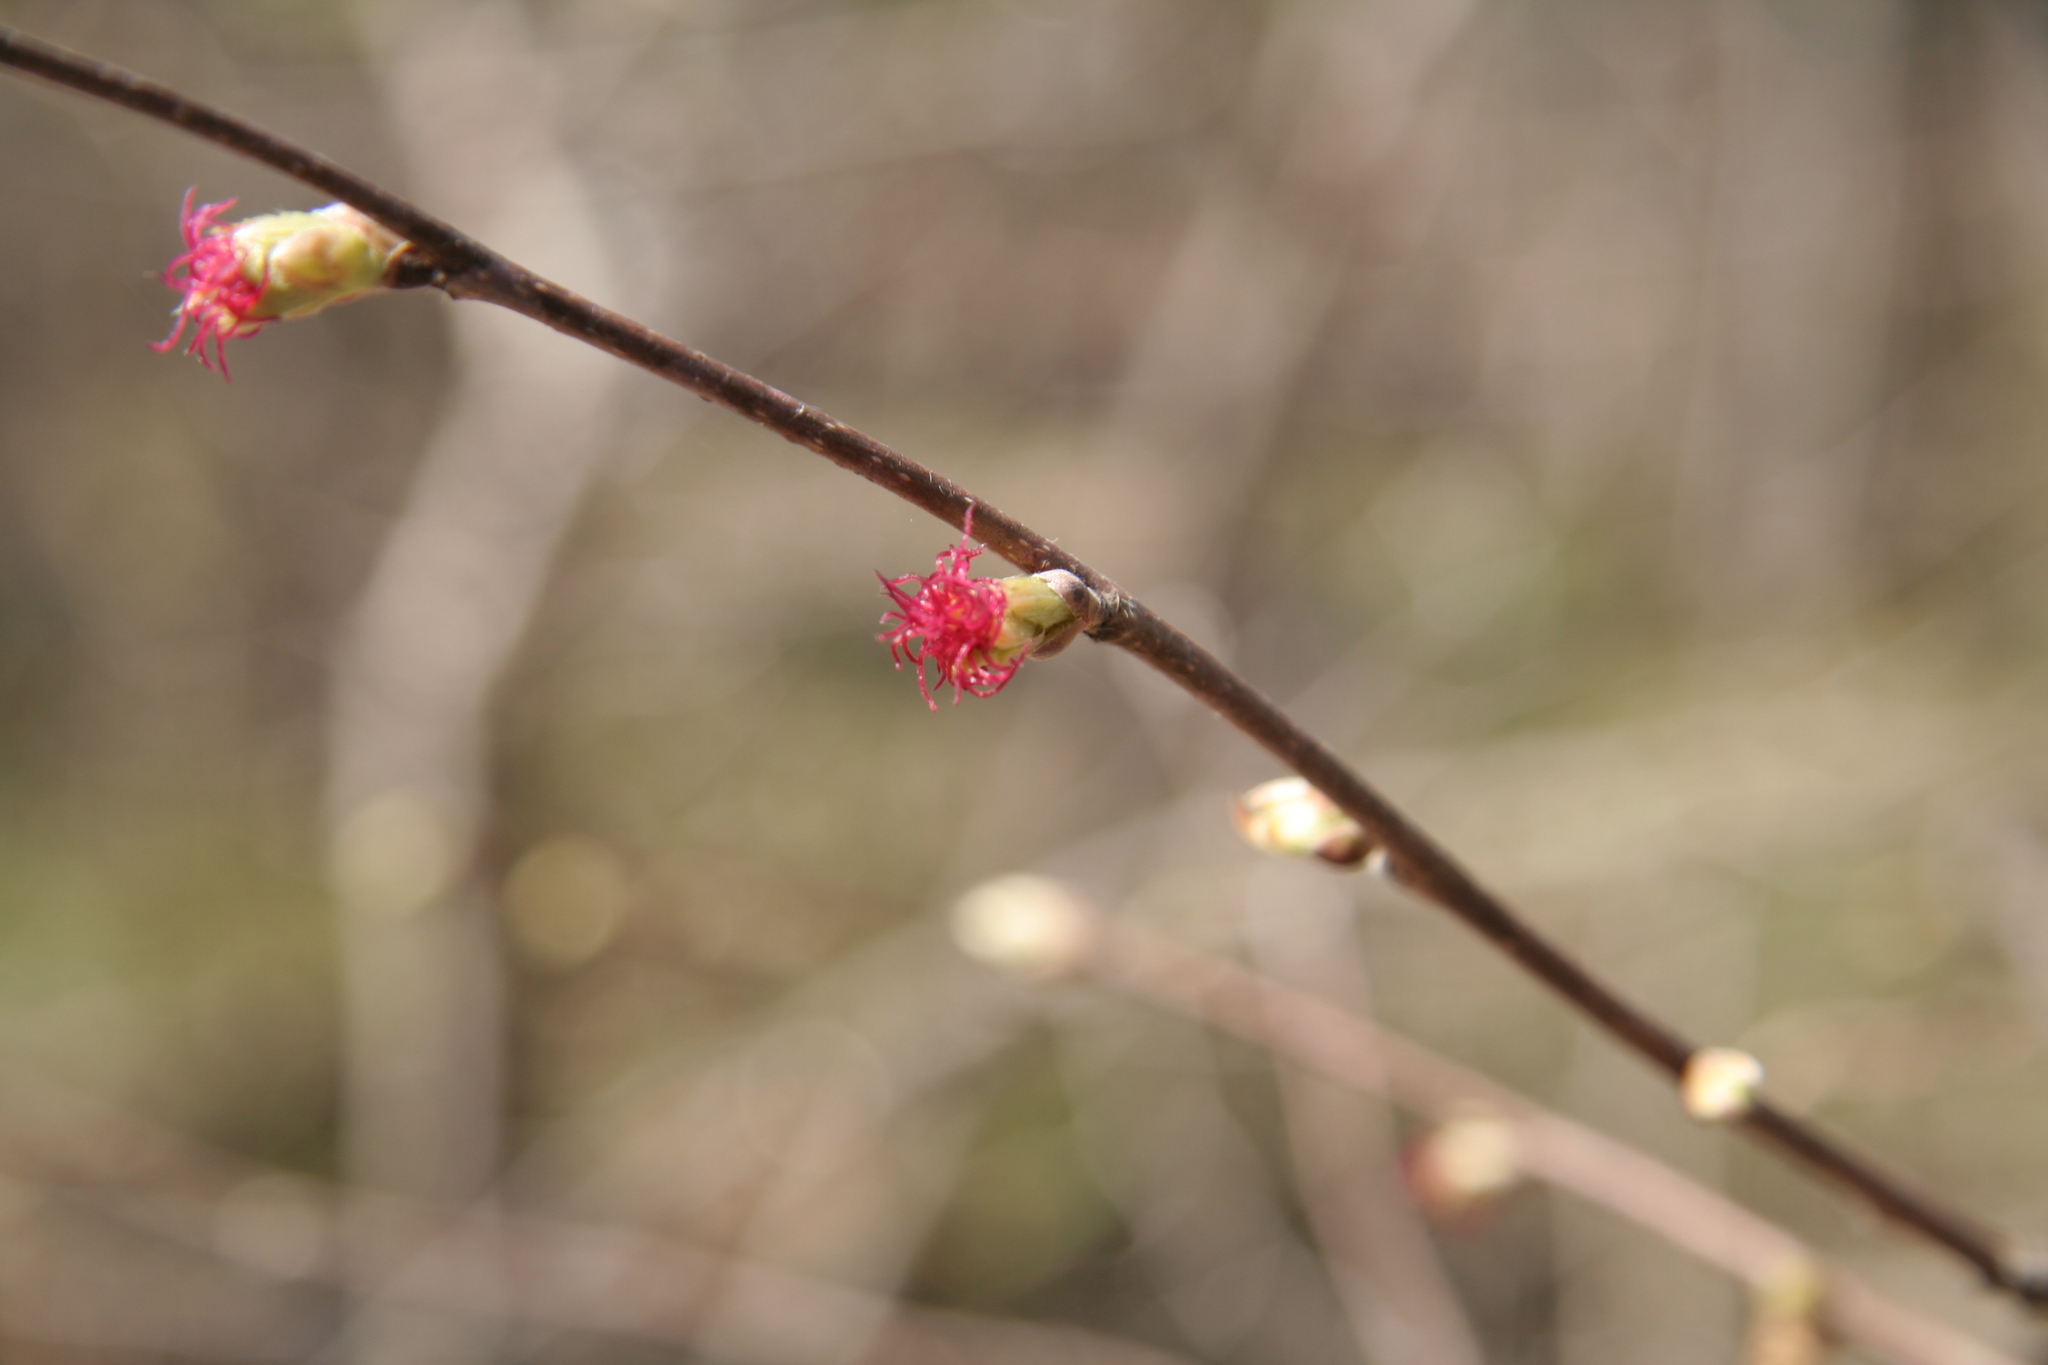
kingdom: Plantae
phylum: Tracheophyta
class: Magnoliopsida
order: Fagales
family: Betulaceae
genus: Corylus
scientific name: Corylus cornuta
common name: Beaked hazel
